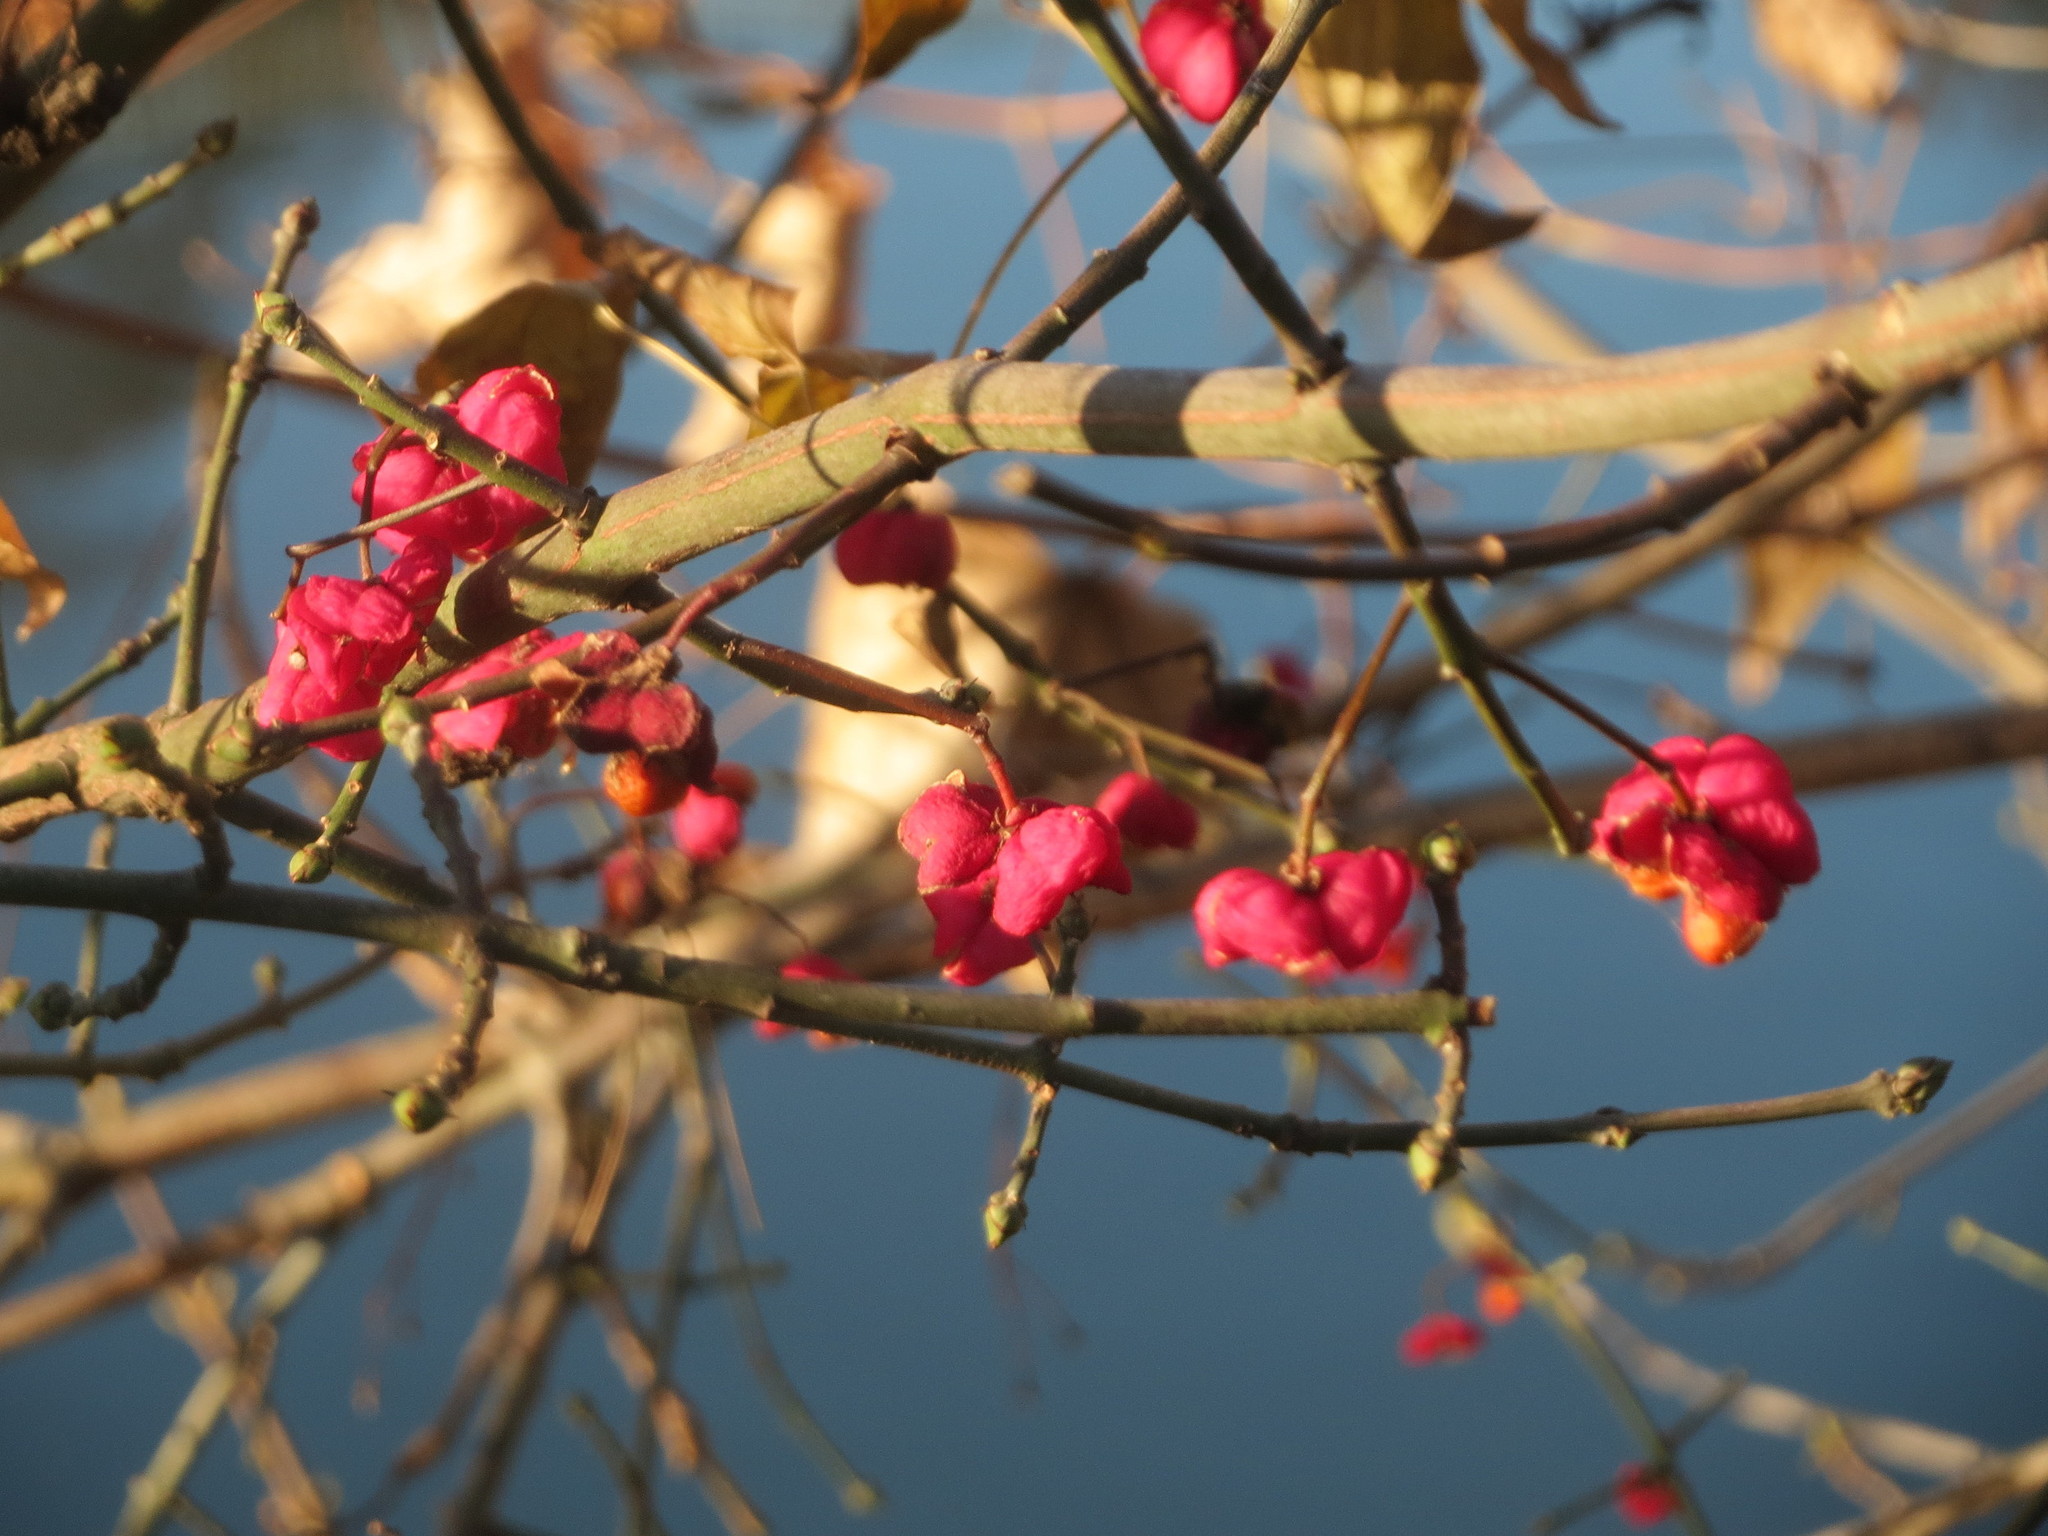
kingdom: Plantae
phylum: Tracheophyta
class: Magnoliopsida
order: Celastrales
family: Celastraceae
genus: Euonymus
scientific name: Euonymus europaeus
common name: Spindle
